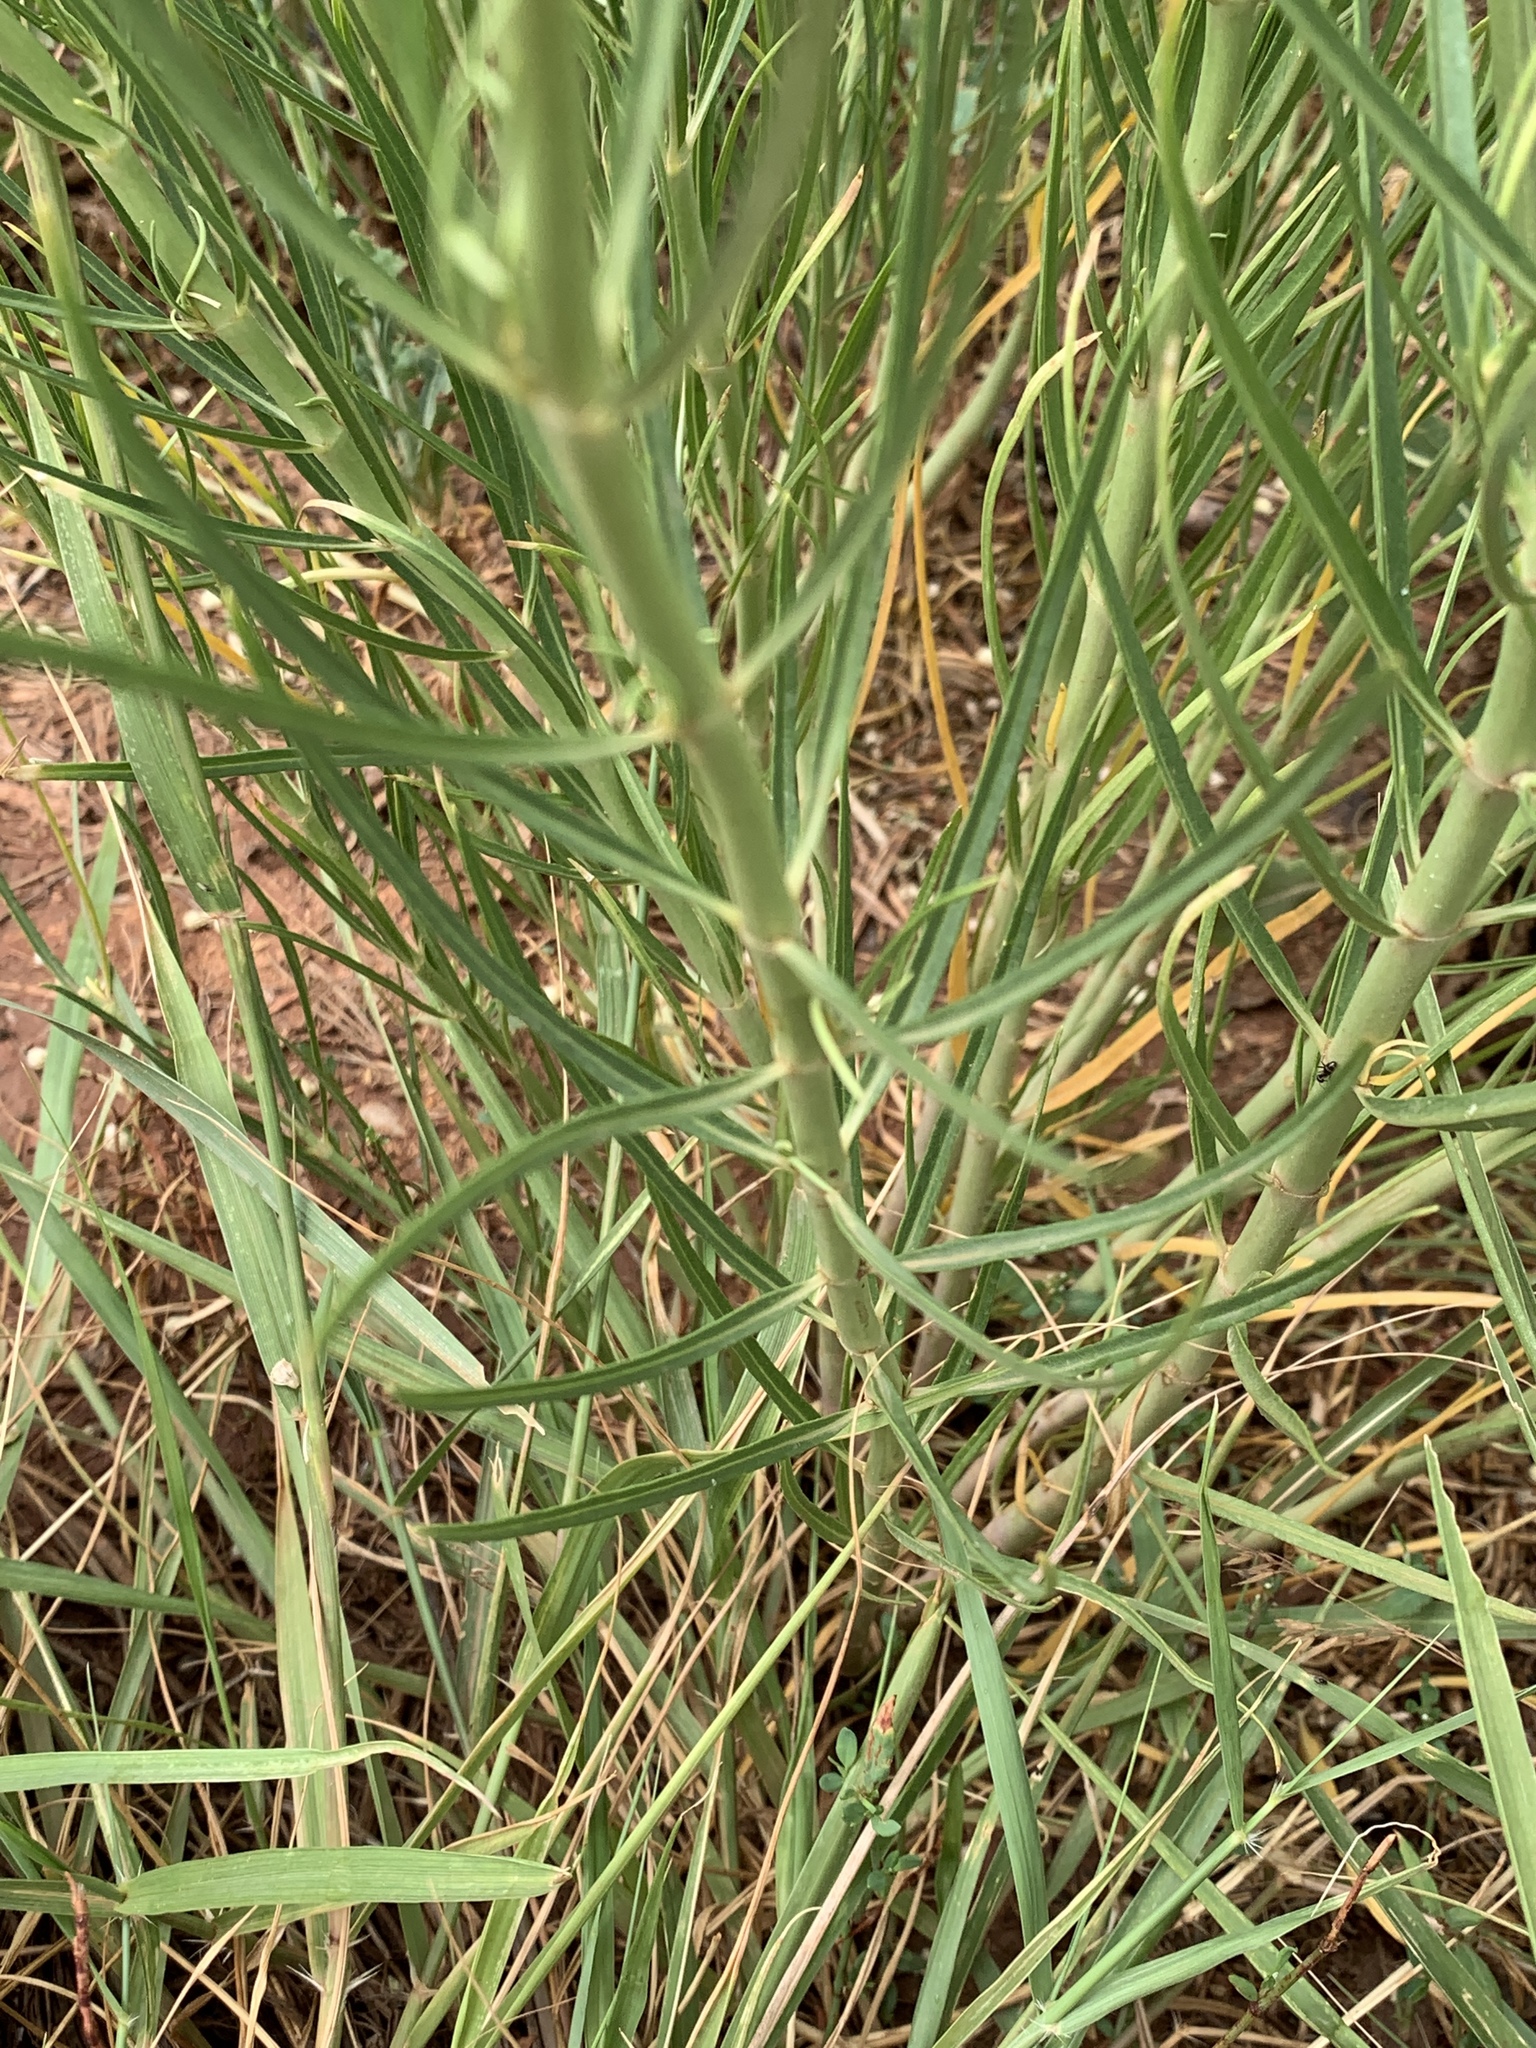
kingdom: Plantae
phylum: Tracheophyta
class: Magnoliopsida
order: Gentianales
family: Apocynaceae
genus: Asclepias
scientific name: Asclepias subverticillata
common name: Horsetail milkweed
